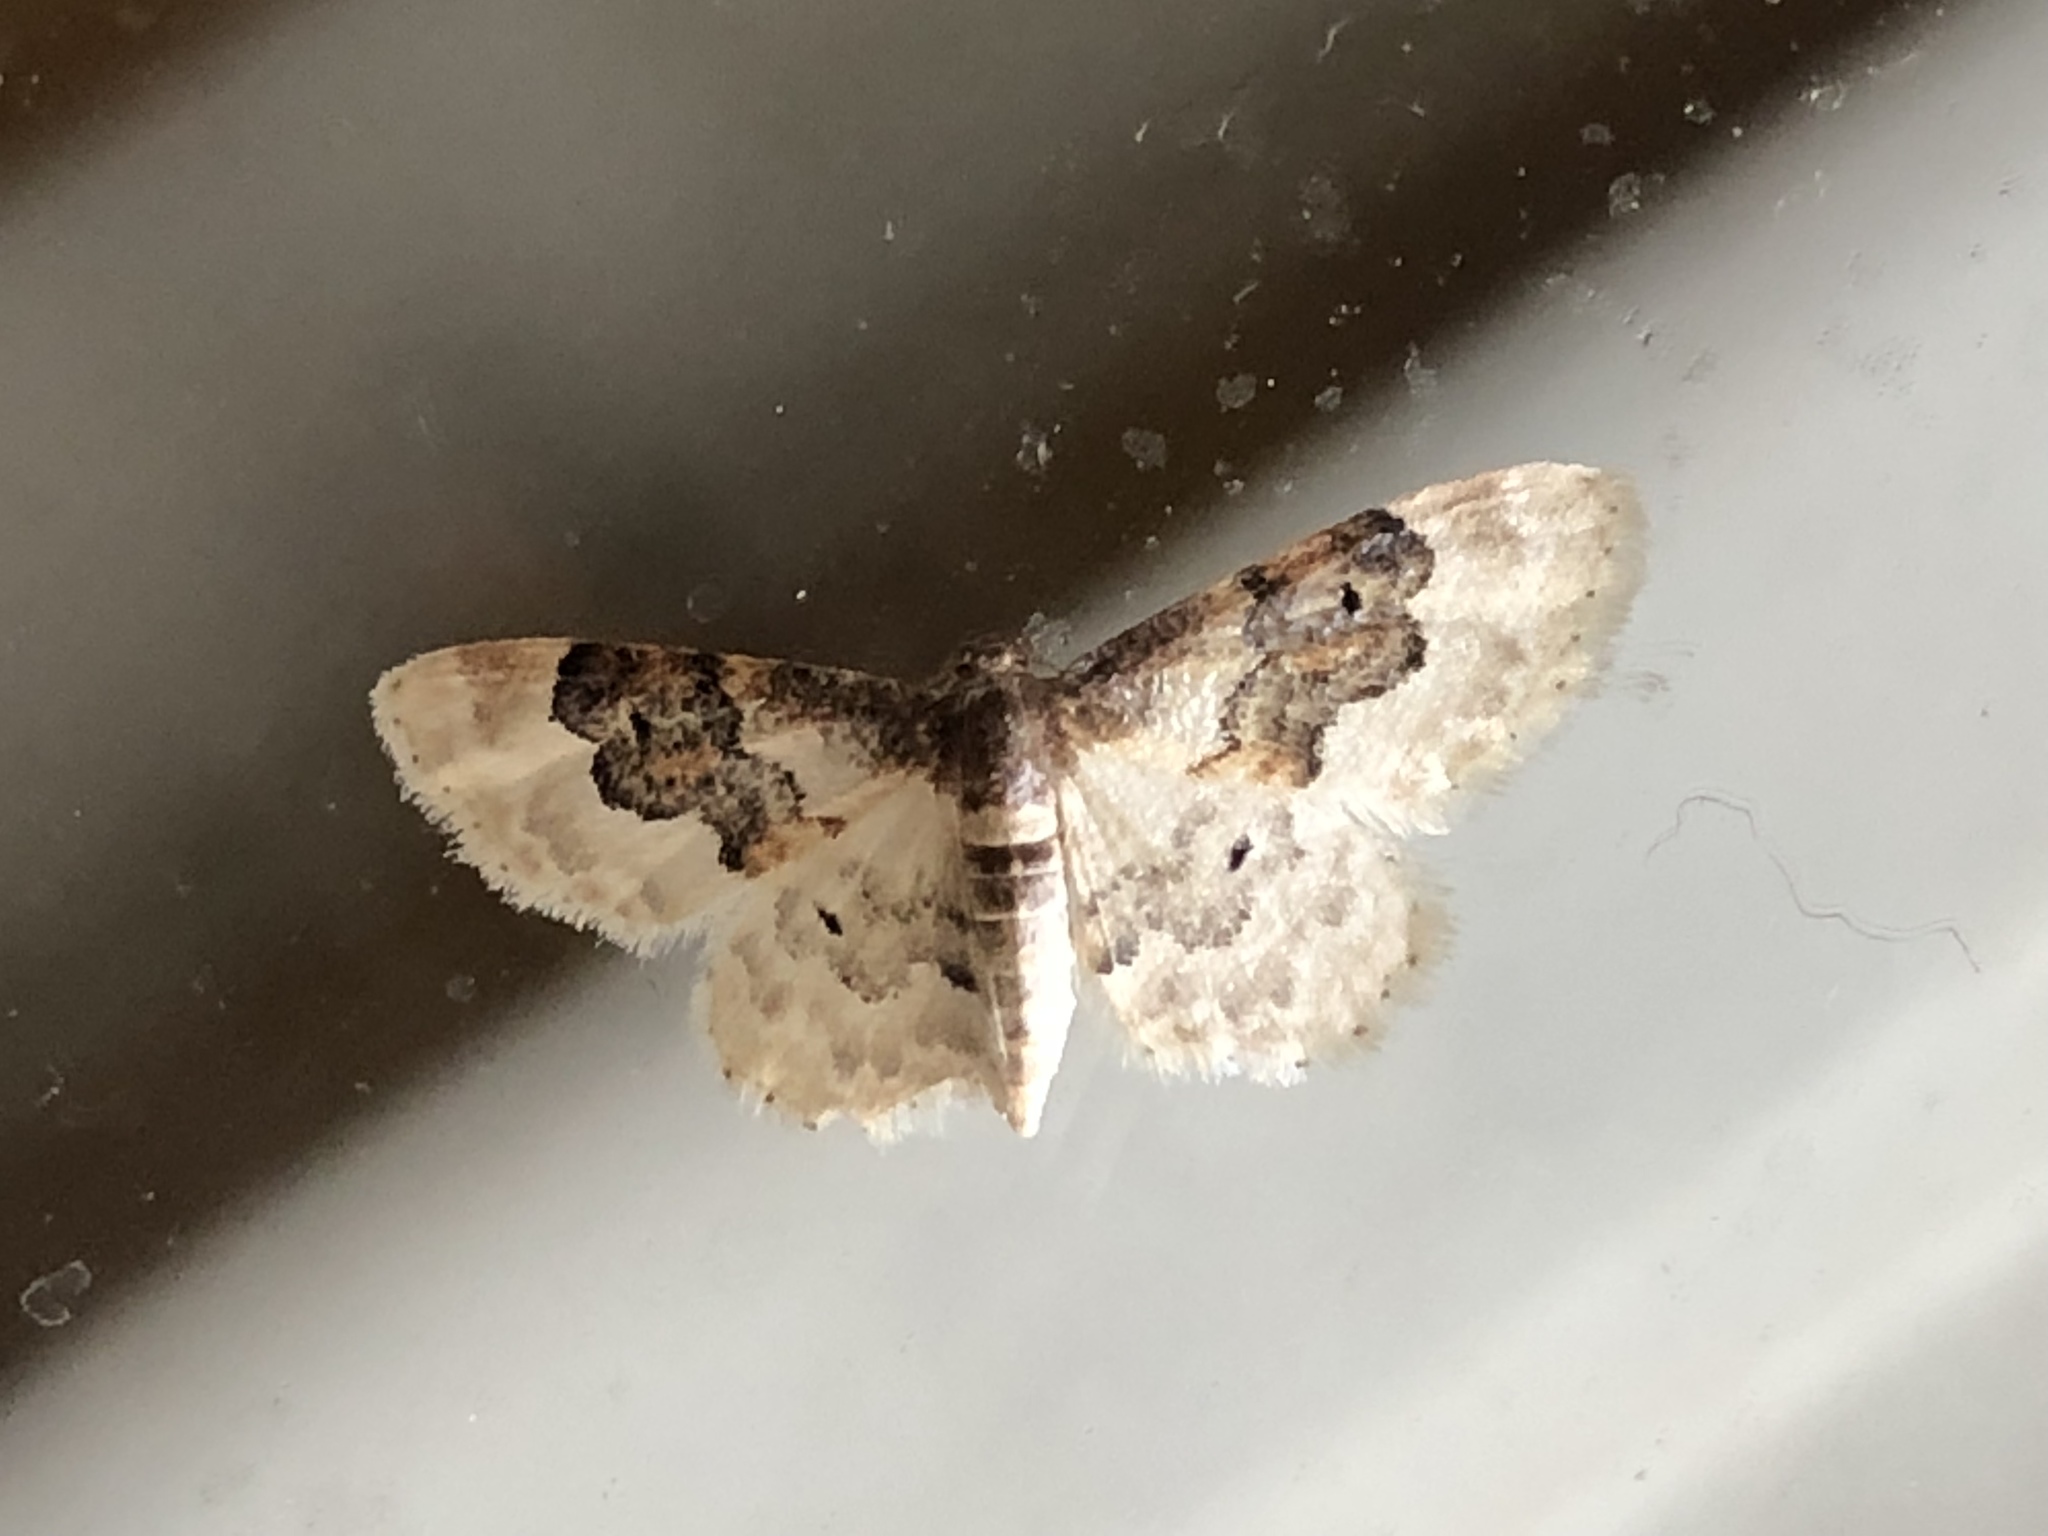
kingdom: Animalia
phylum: Arthropoda
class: Insecta
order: Lepidoptera
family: Geometridae
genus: Idaea
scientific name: Idaea rusticata
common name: Least carpet
